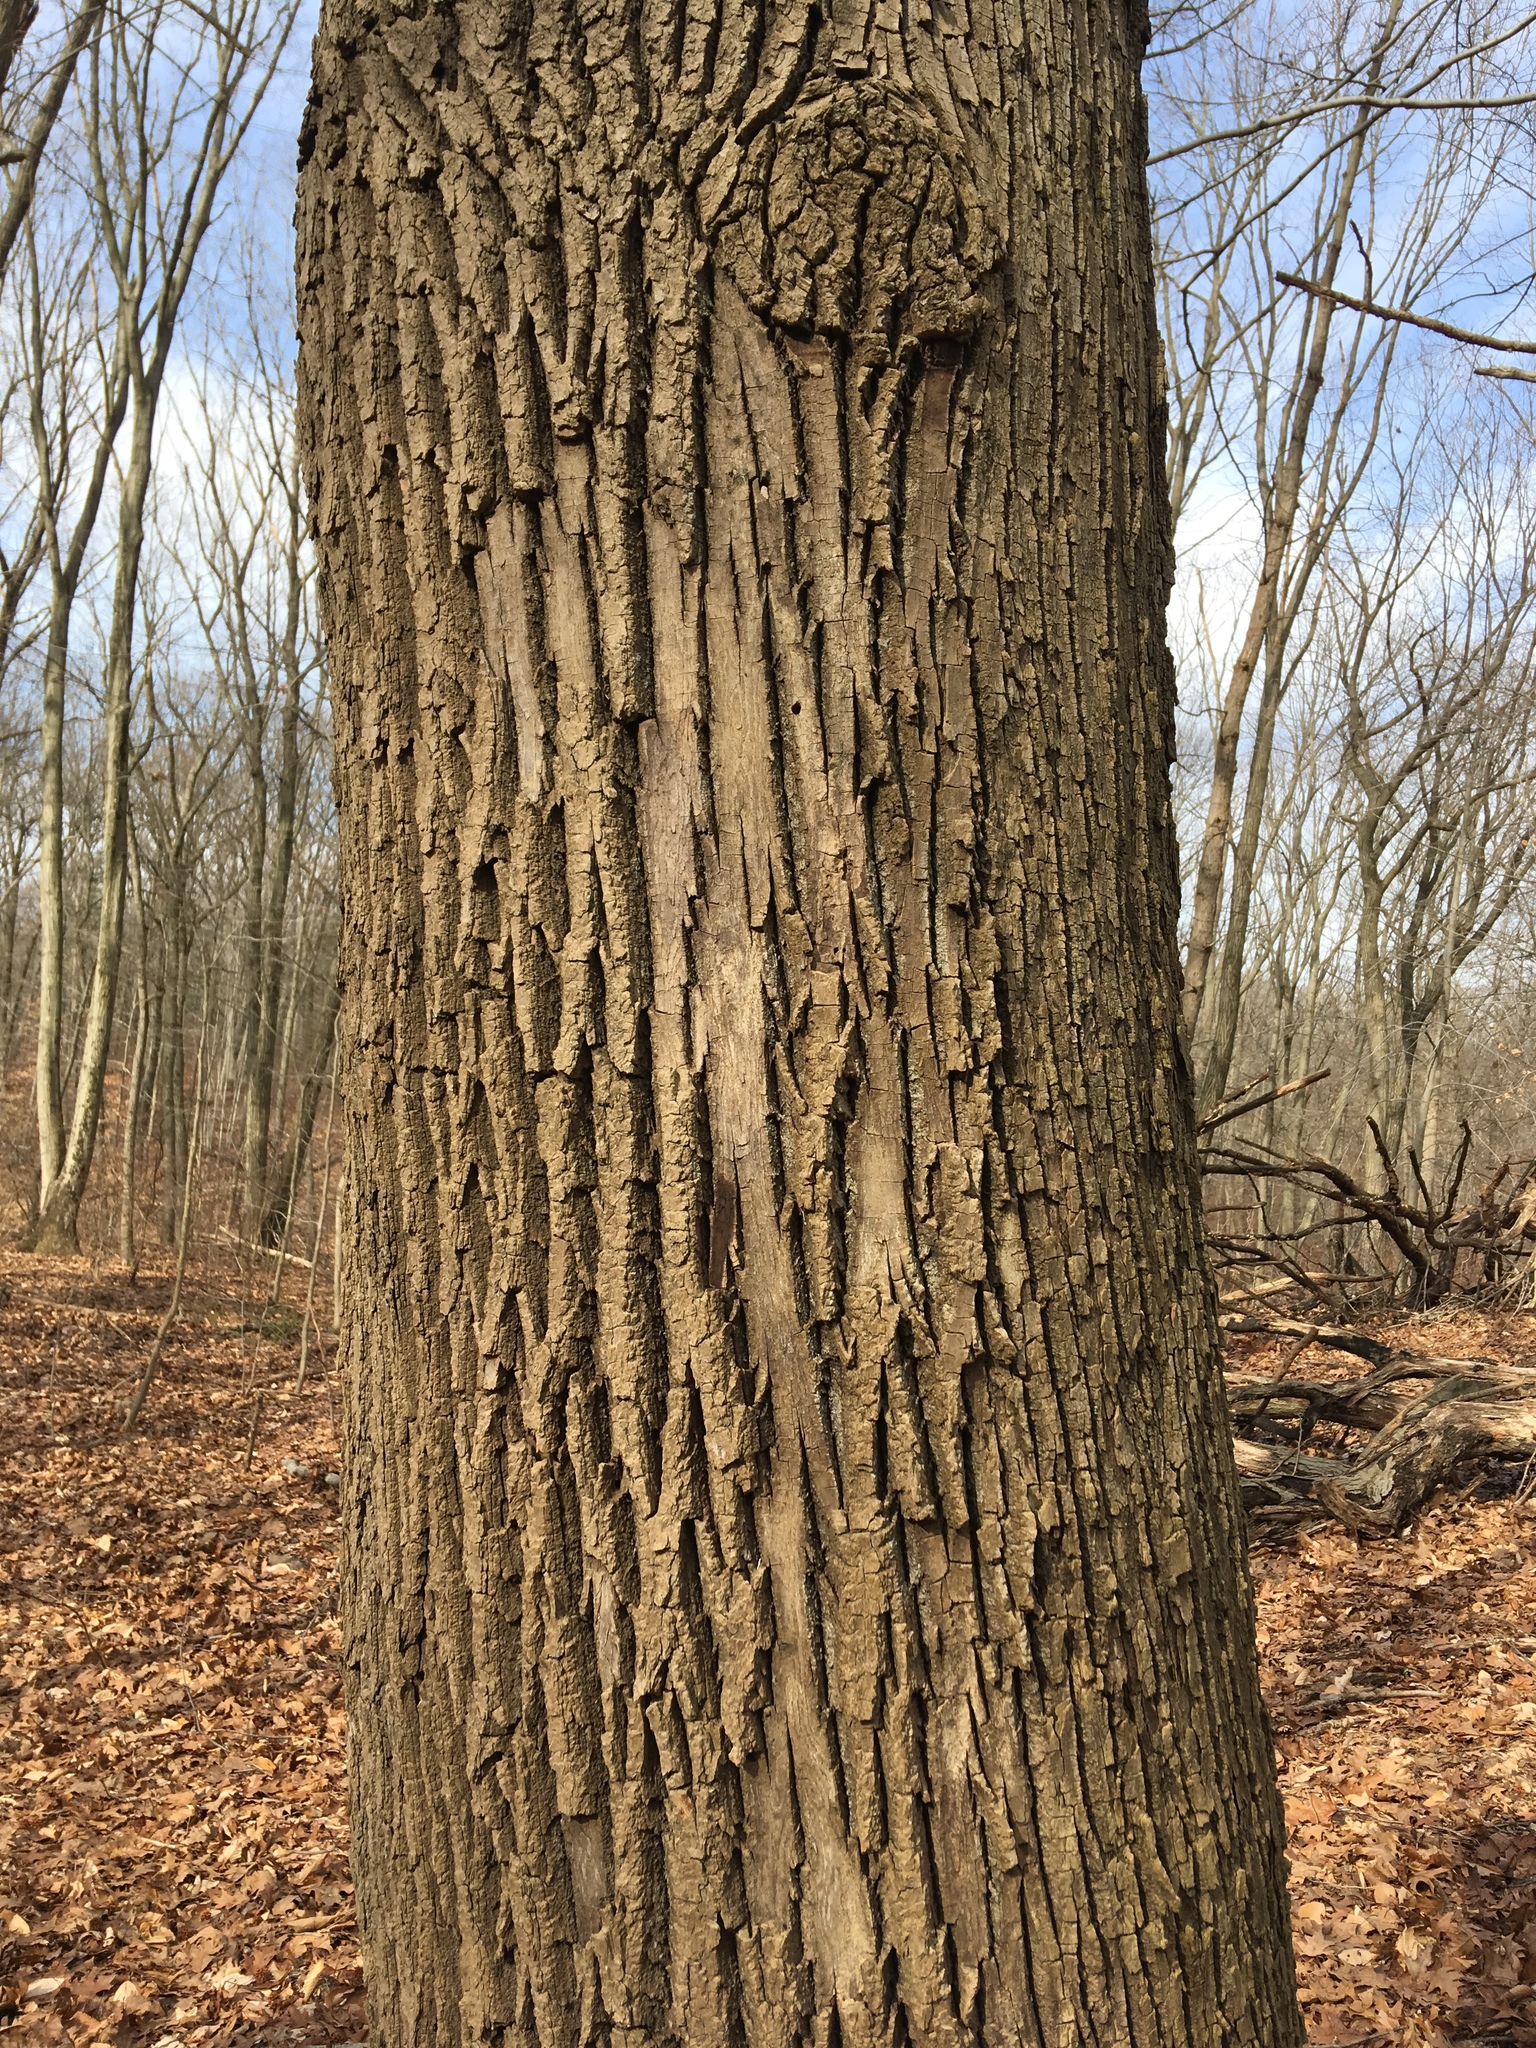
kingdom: Plantae
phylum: Tracheophyta
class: Magnoliopsida
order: Lamiales
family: Oleaceae
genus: Fraxinus
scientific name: Fraxinus americana
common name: White ash
